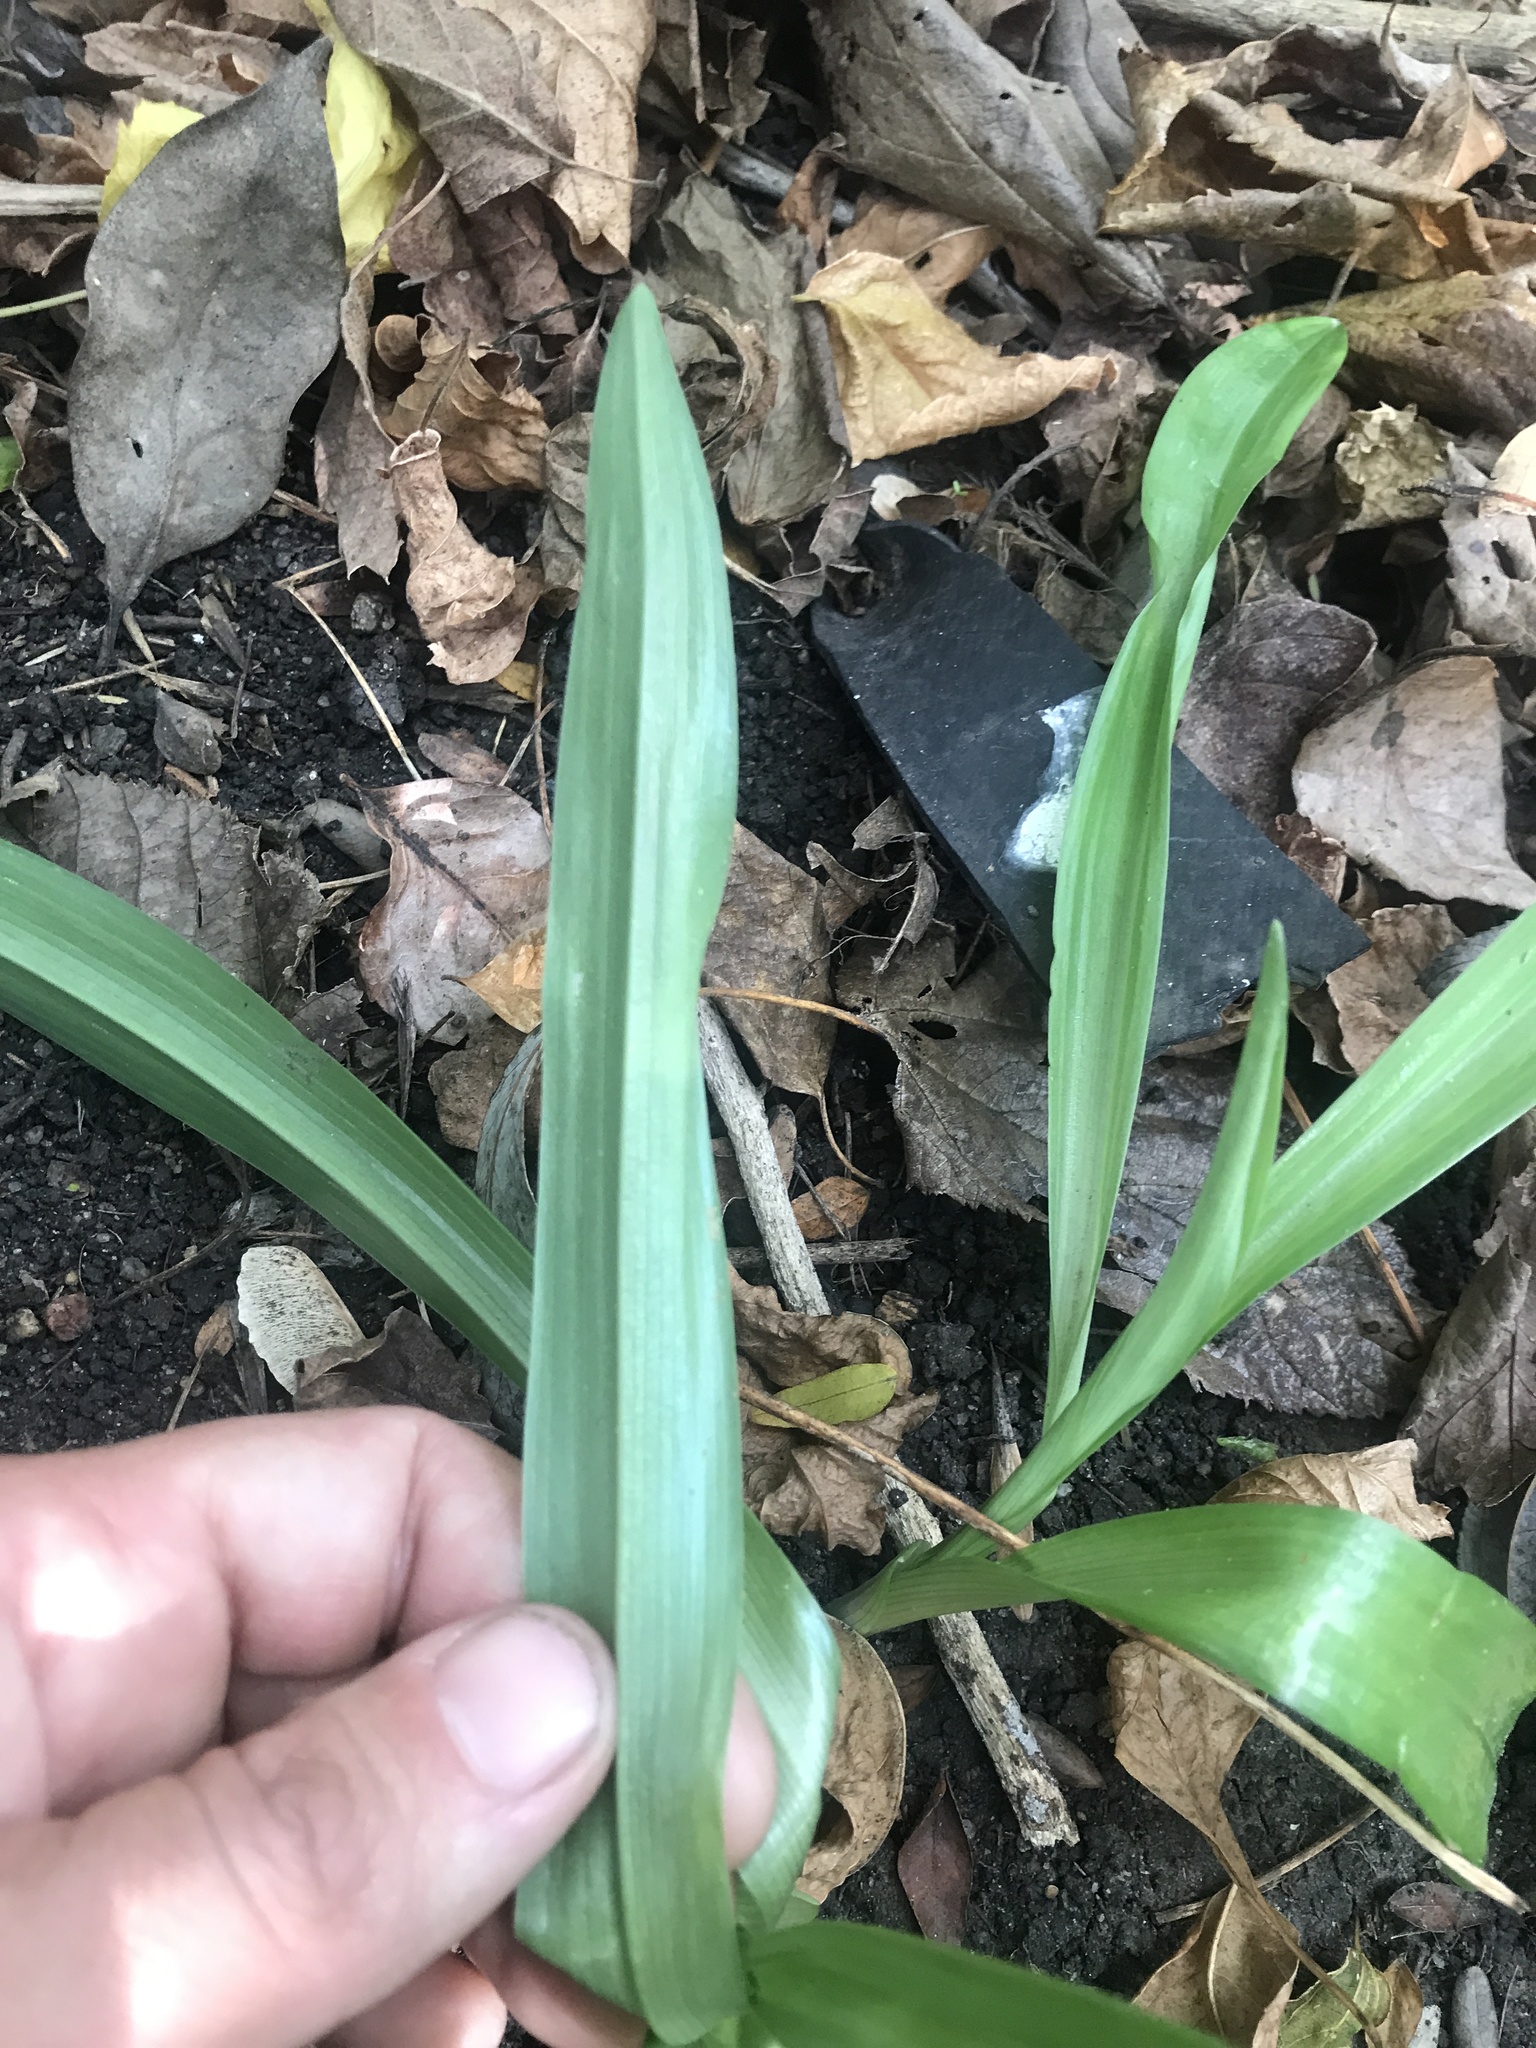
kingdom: Plantae
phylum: Tracheophyta
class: Liliopsida
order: Asparagales
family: Orchidaceae
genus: Chloraea
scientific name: Chloraea membranacea
